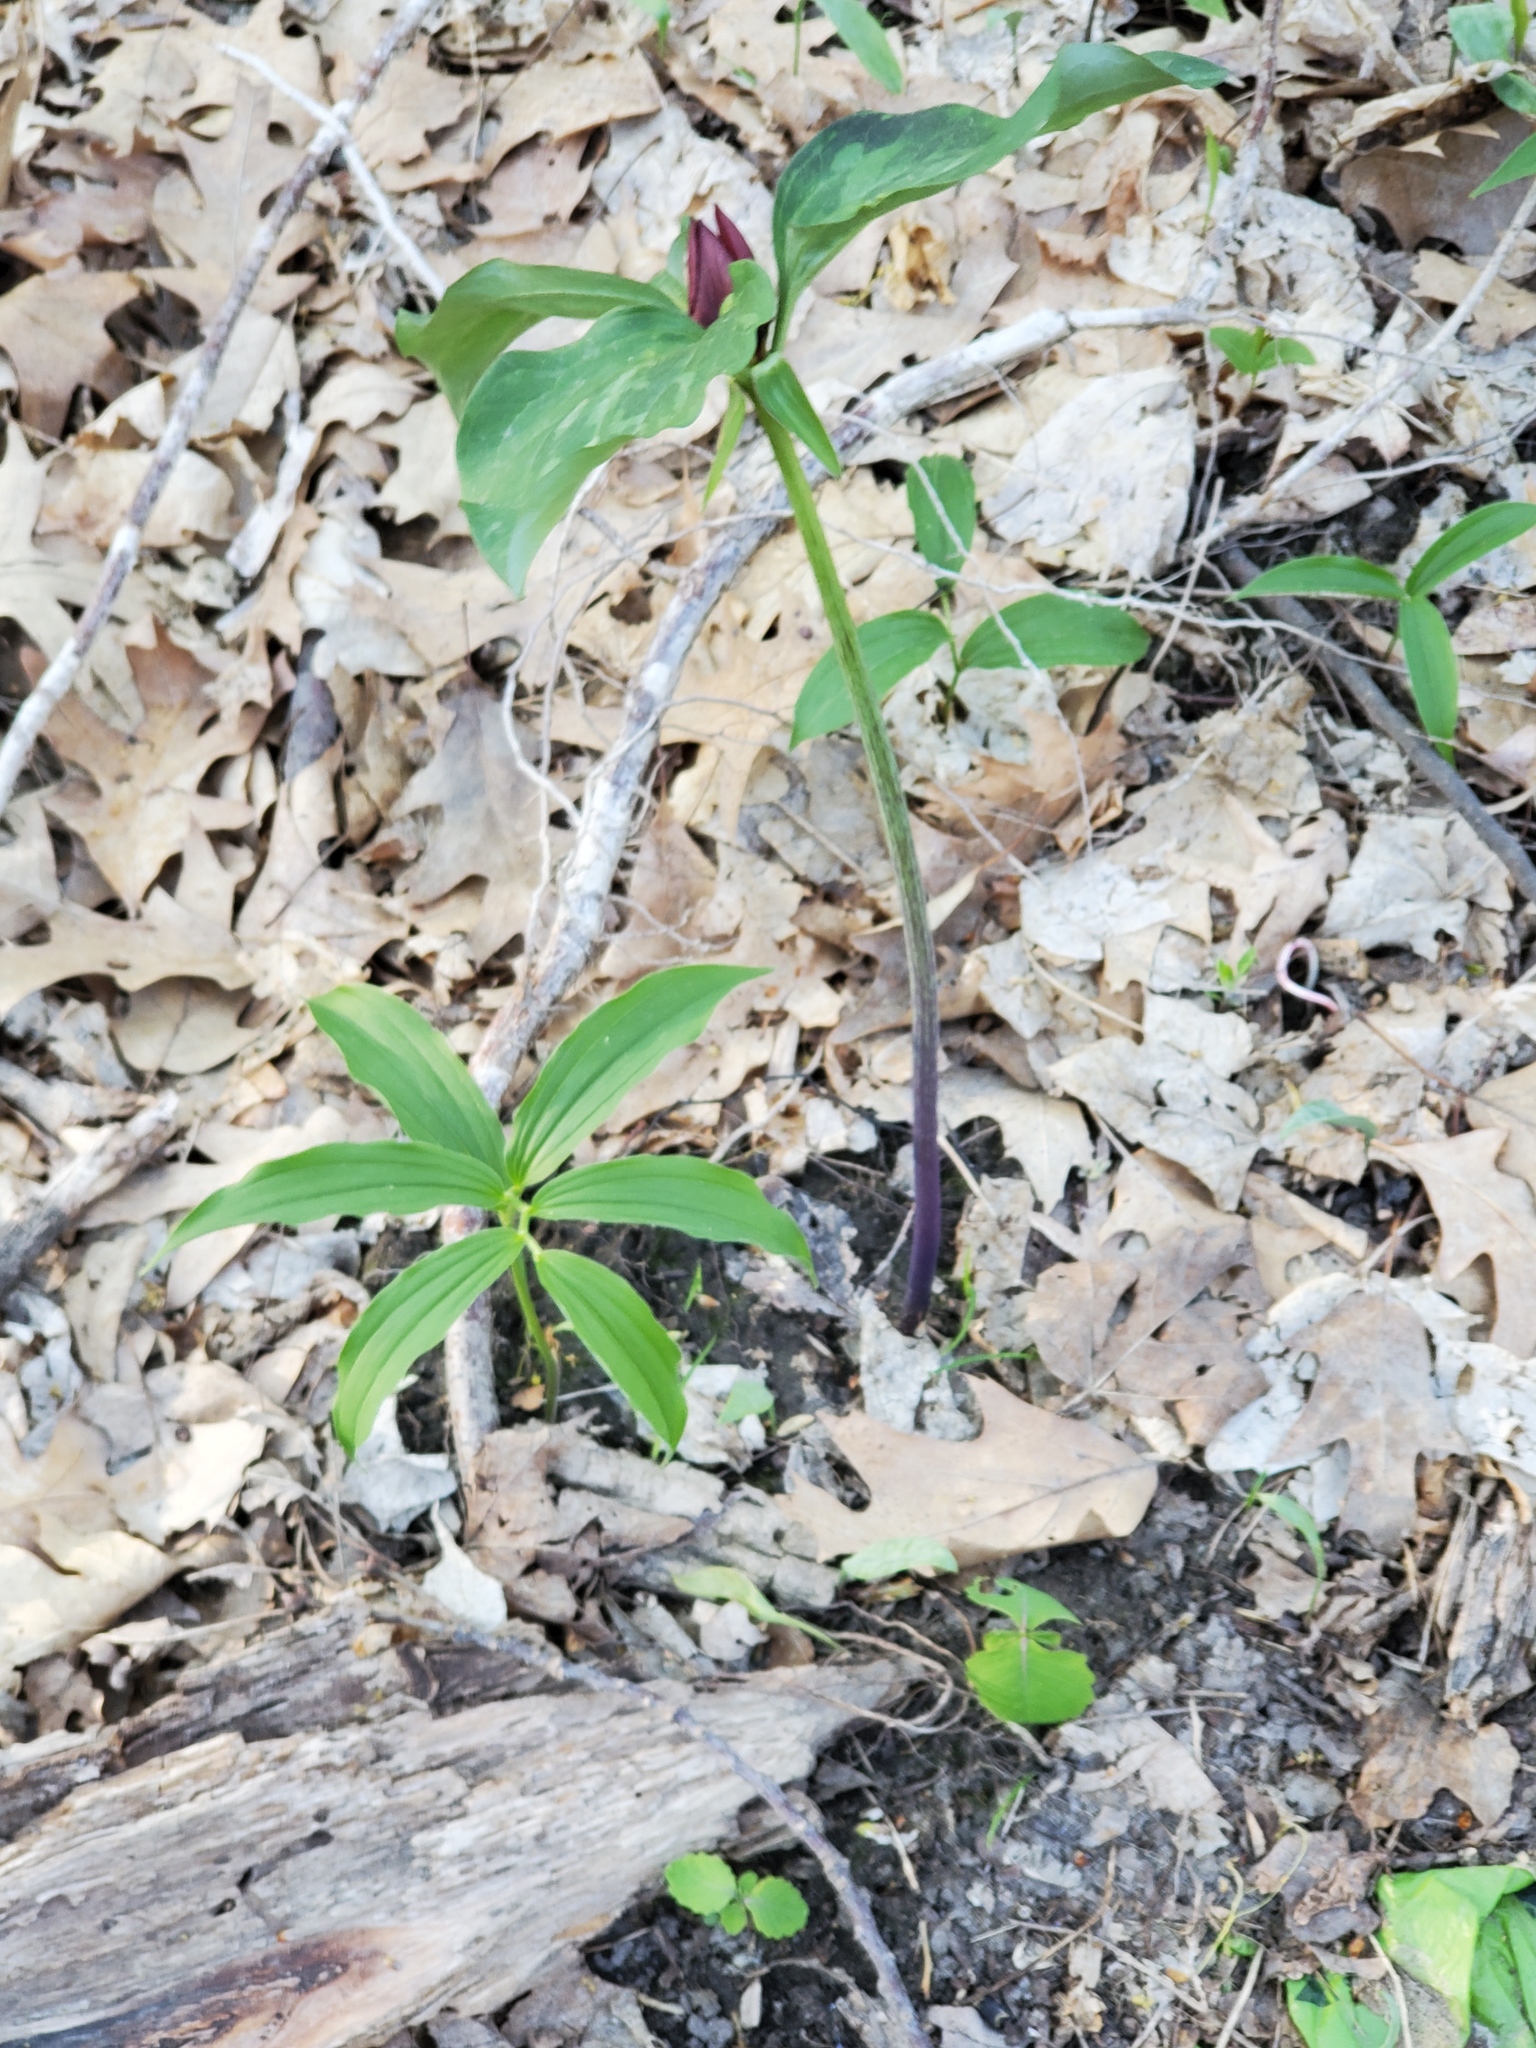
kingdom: Plantae
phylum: Tracheophyta
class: Liliopsida
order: Asparagales
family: Asparagaceae
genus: Maianthemum
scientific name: Maianthemum racemosum
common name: False spikenard
